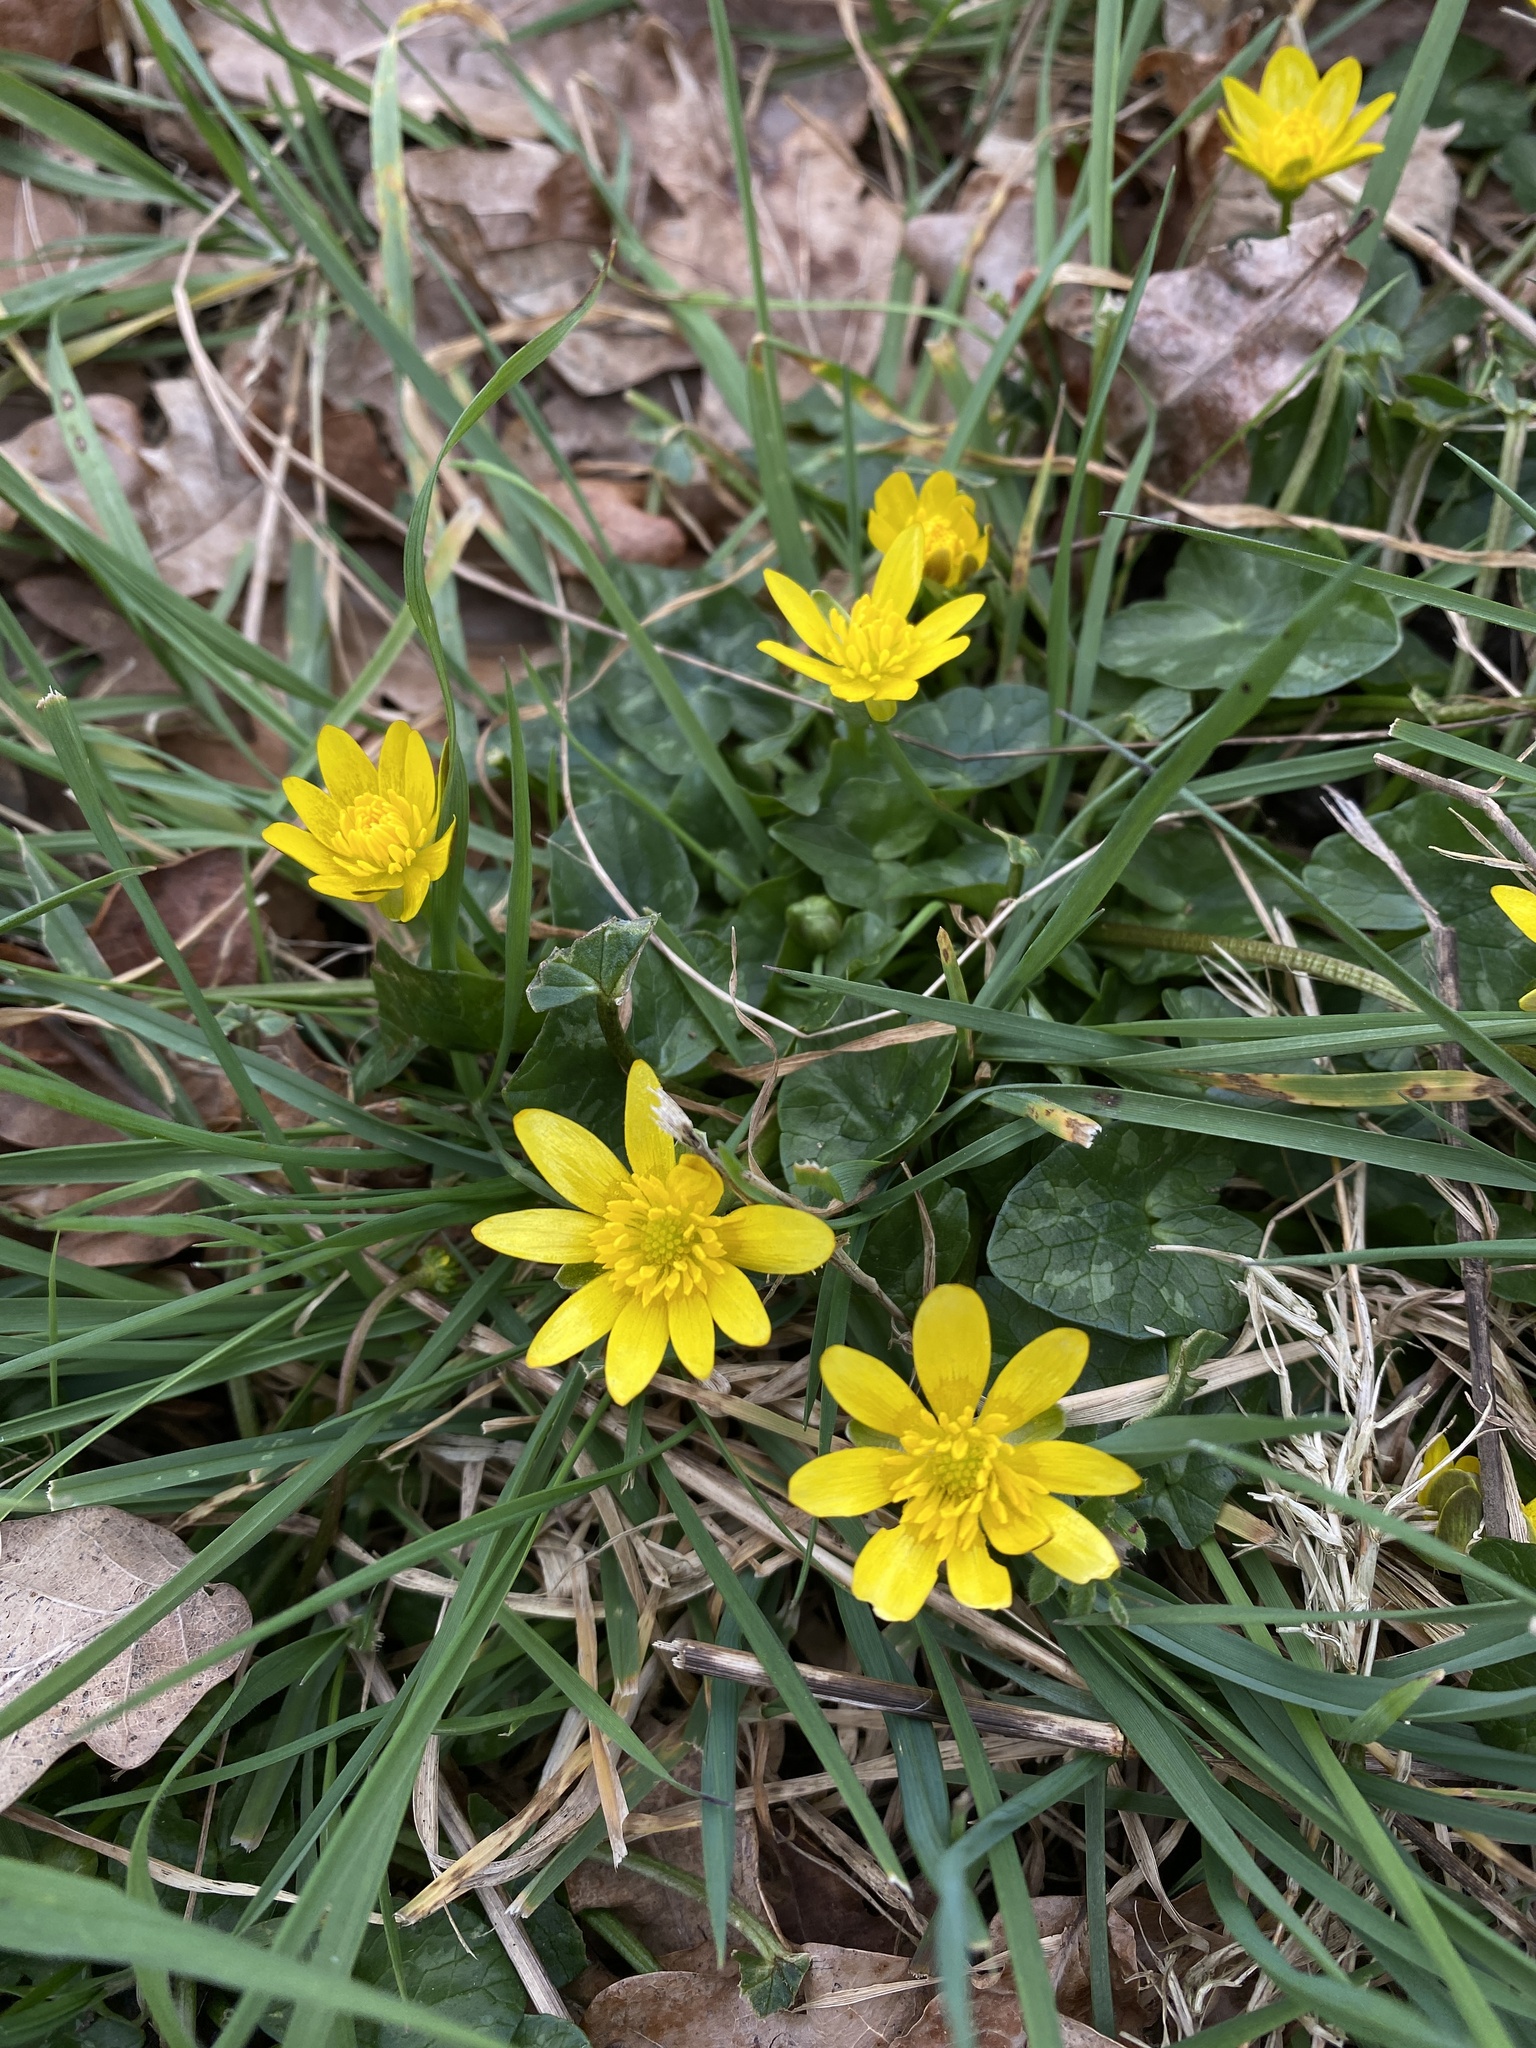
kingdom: Plantae
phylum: Tracheophyta
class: Magnoliopsida
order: Ranunculales
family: Ranunculaceae
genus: Ficaria
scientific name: Ficaria verna
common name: Lesser celandine
